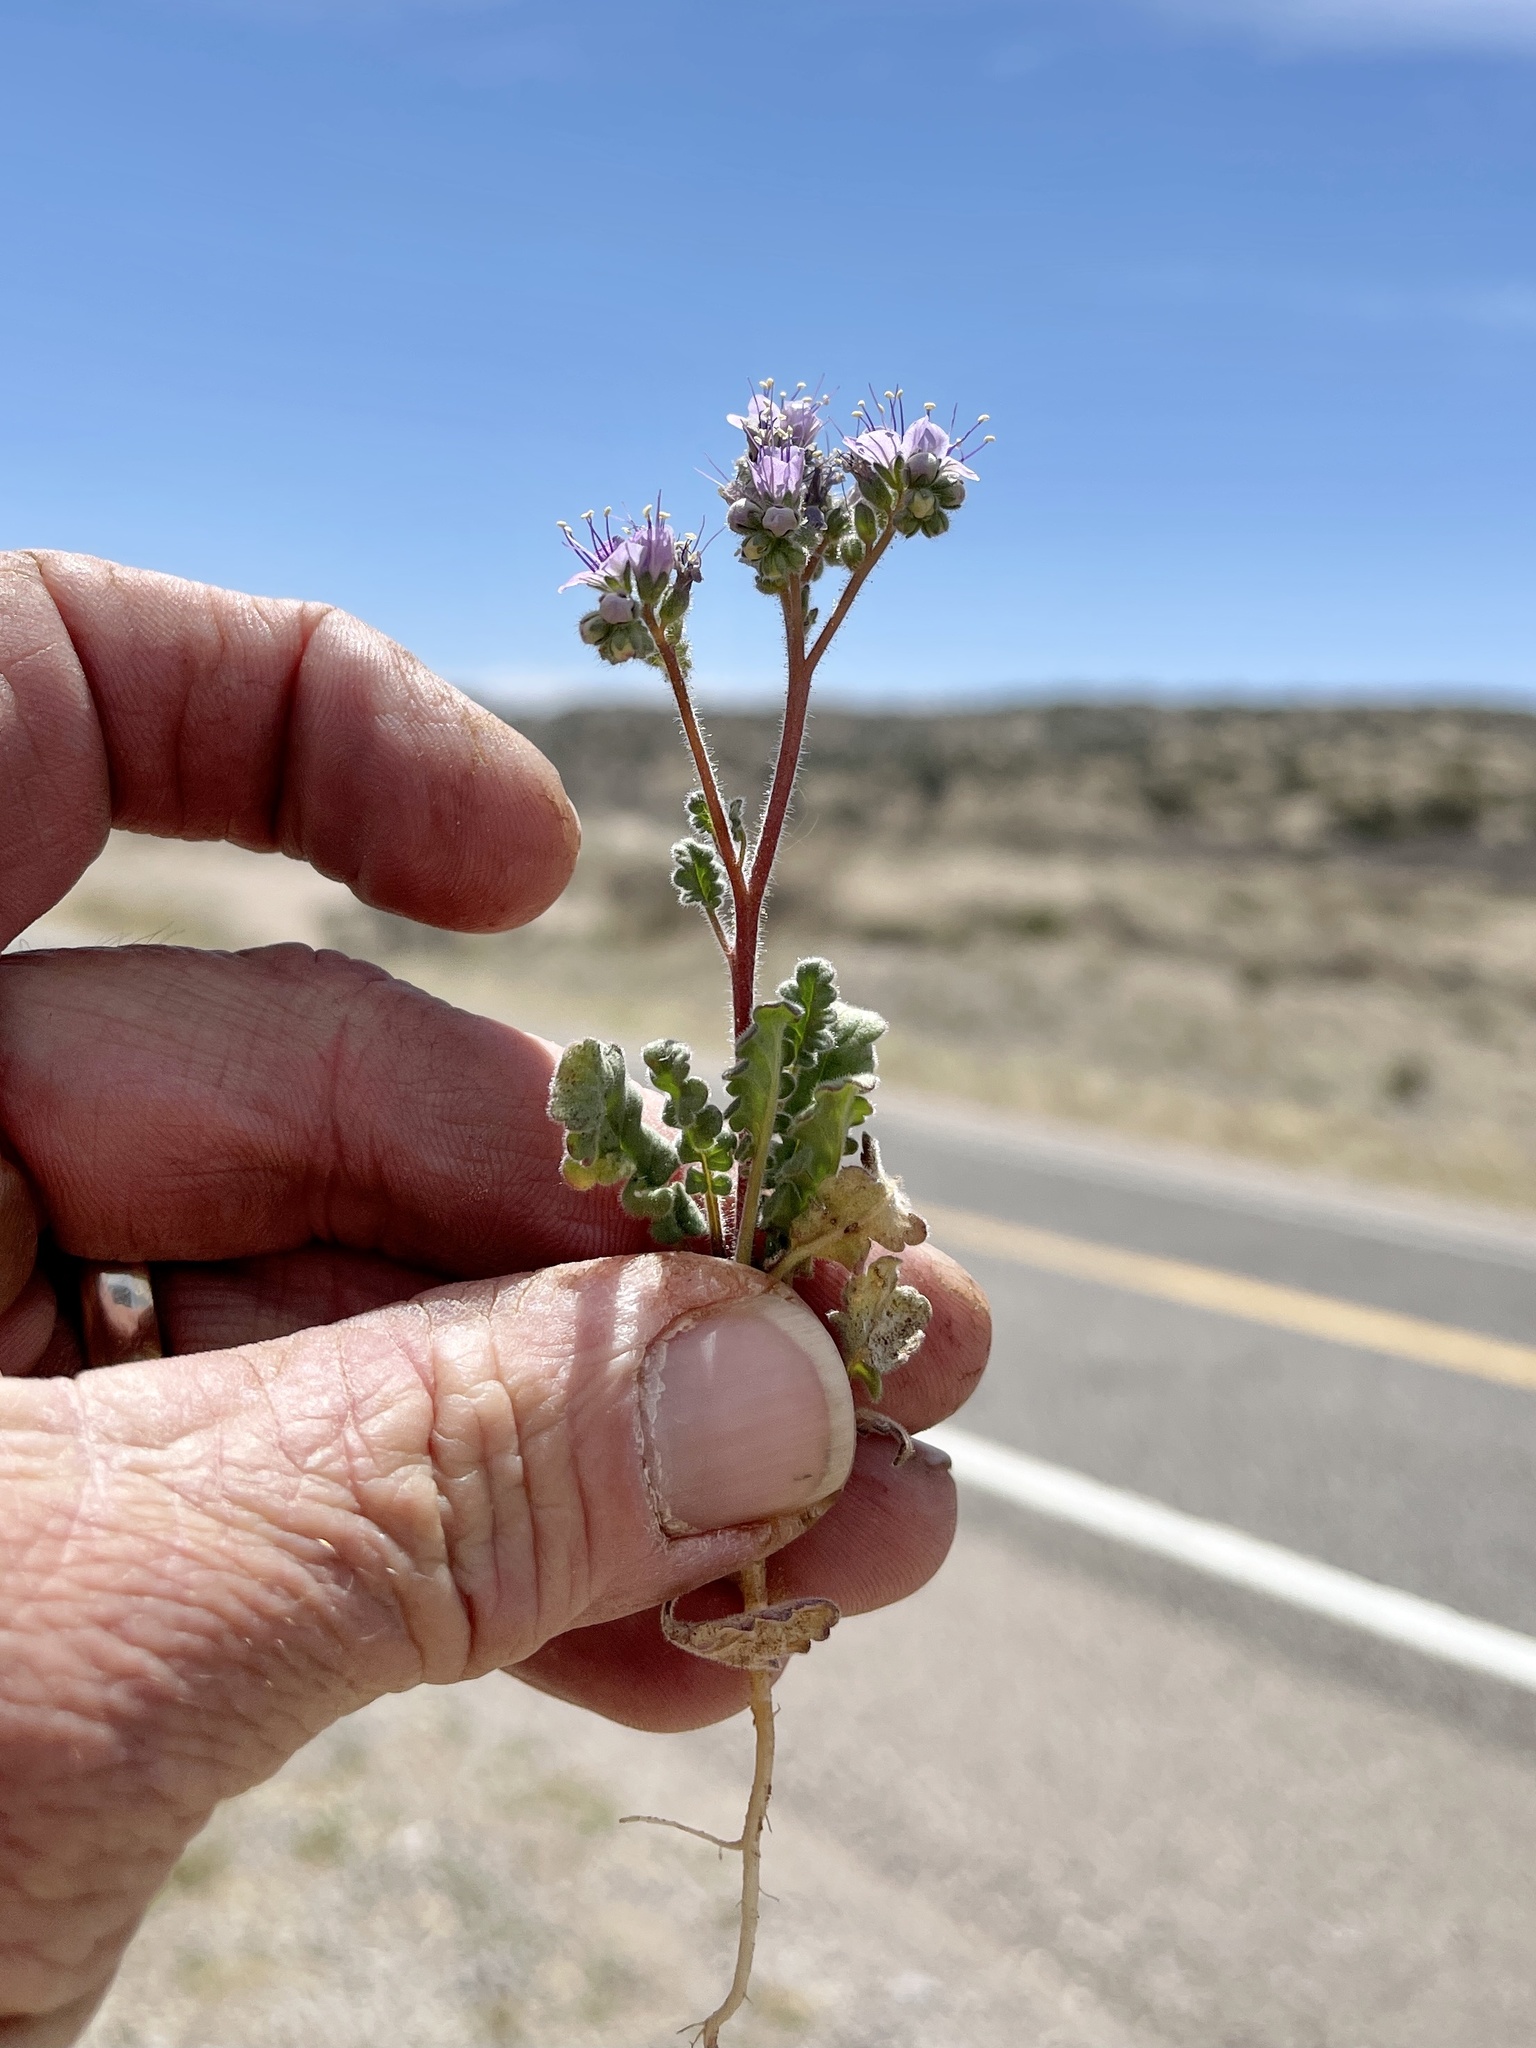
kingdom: Plantae
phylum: Tracheophyta
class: Magnoliopsida
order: Boraginales
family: Hydrophyllaceae
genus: Phacelia
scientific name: Phacelia bombycina
